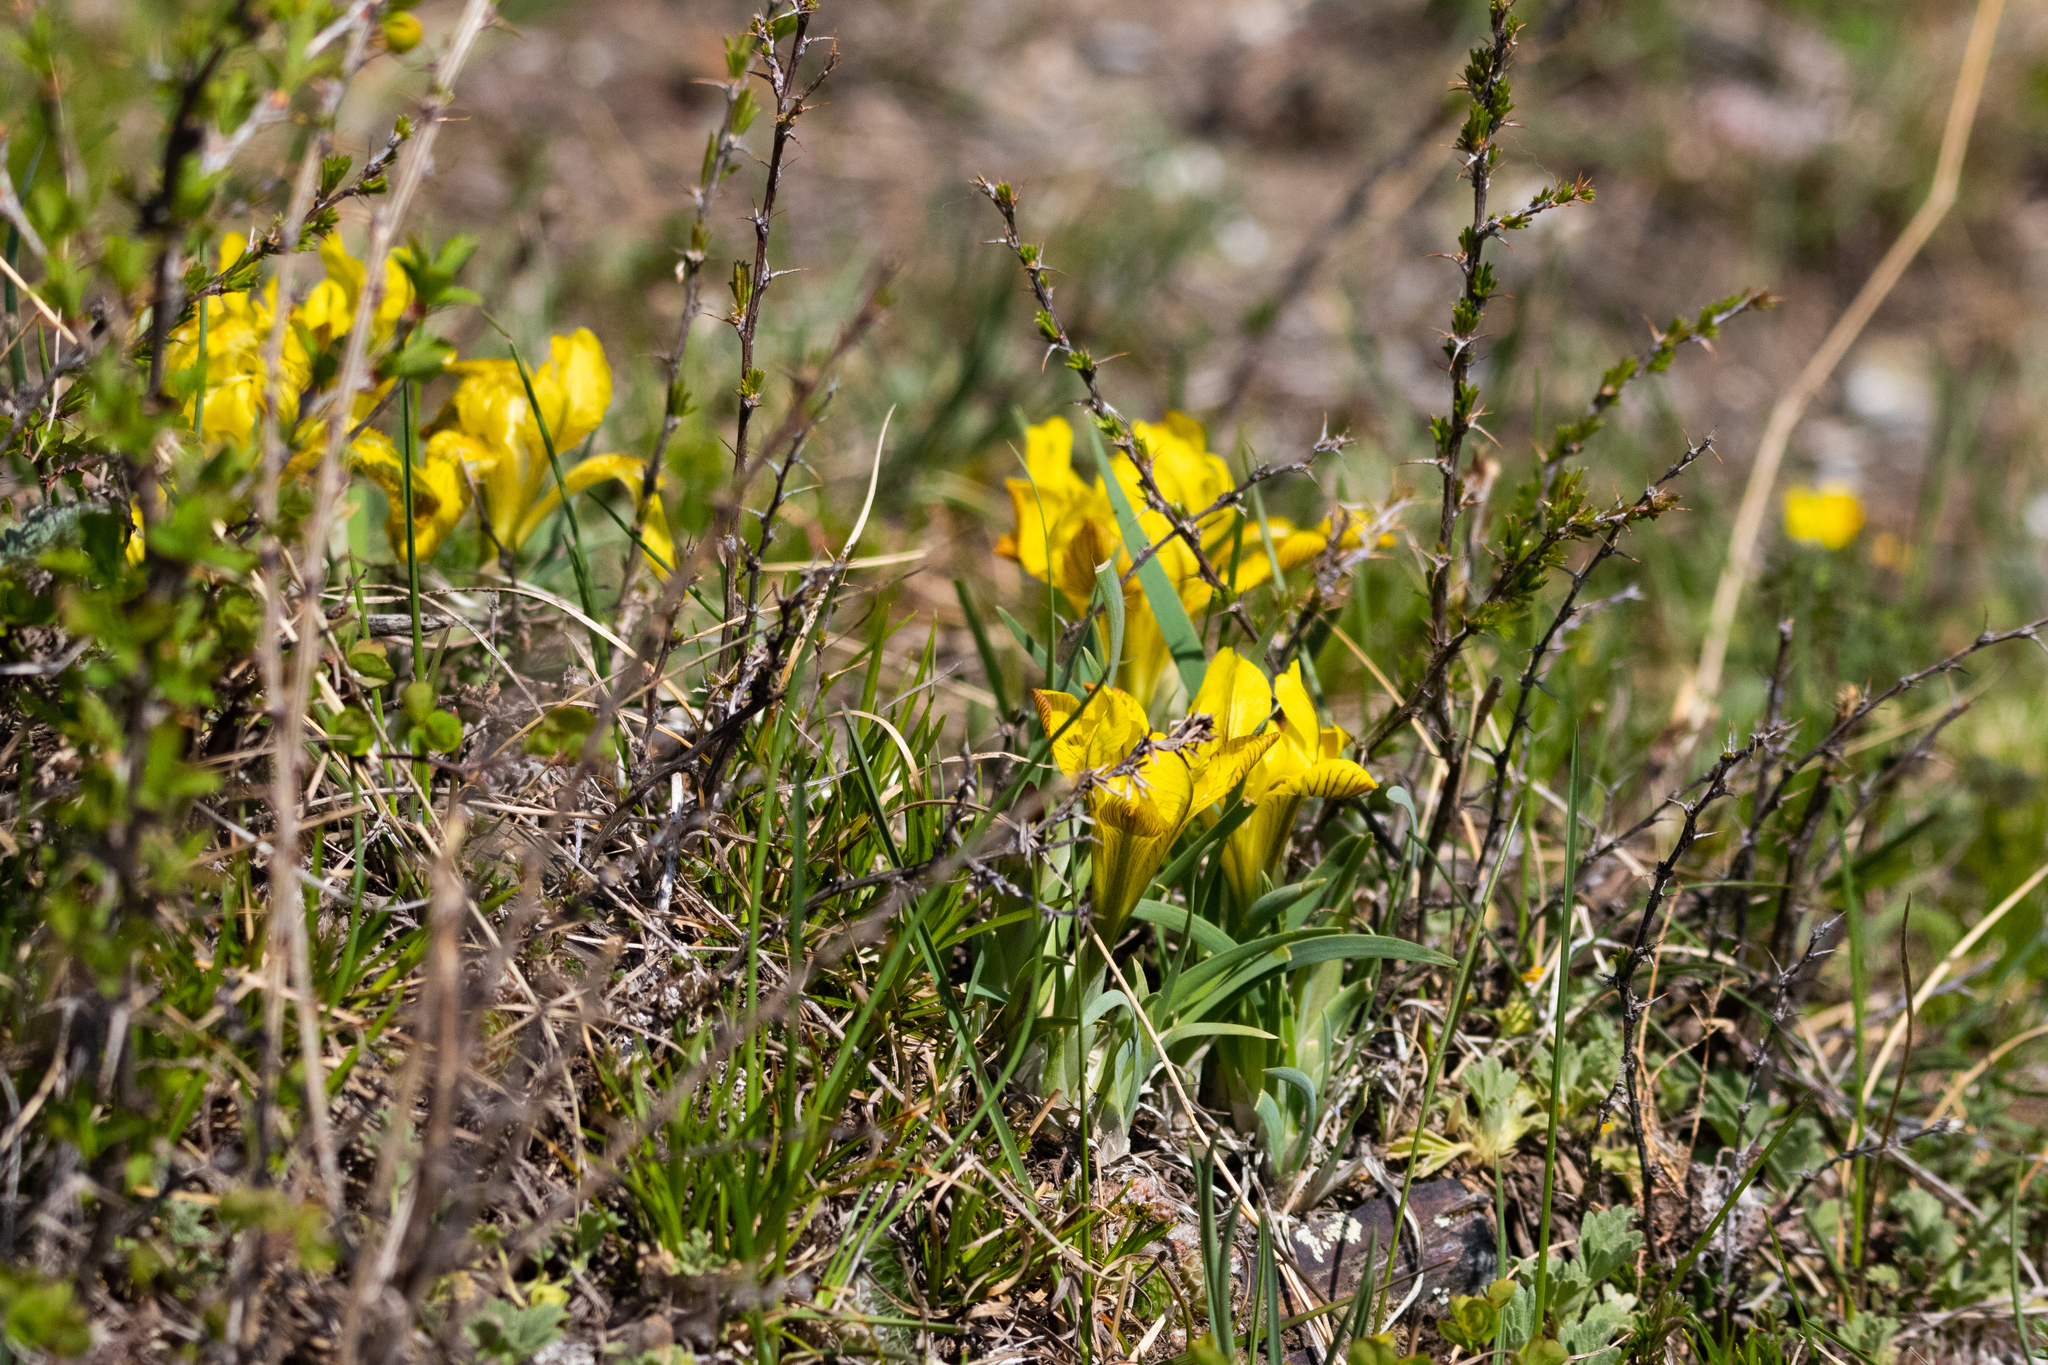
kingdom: Plantae
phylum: Tracheophyta
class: Liliopsida
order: Asparagales
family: Iridaceae
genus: Iris
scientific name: Iris humilis
